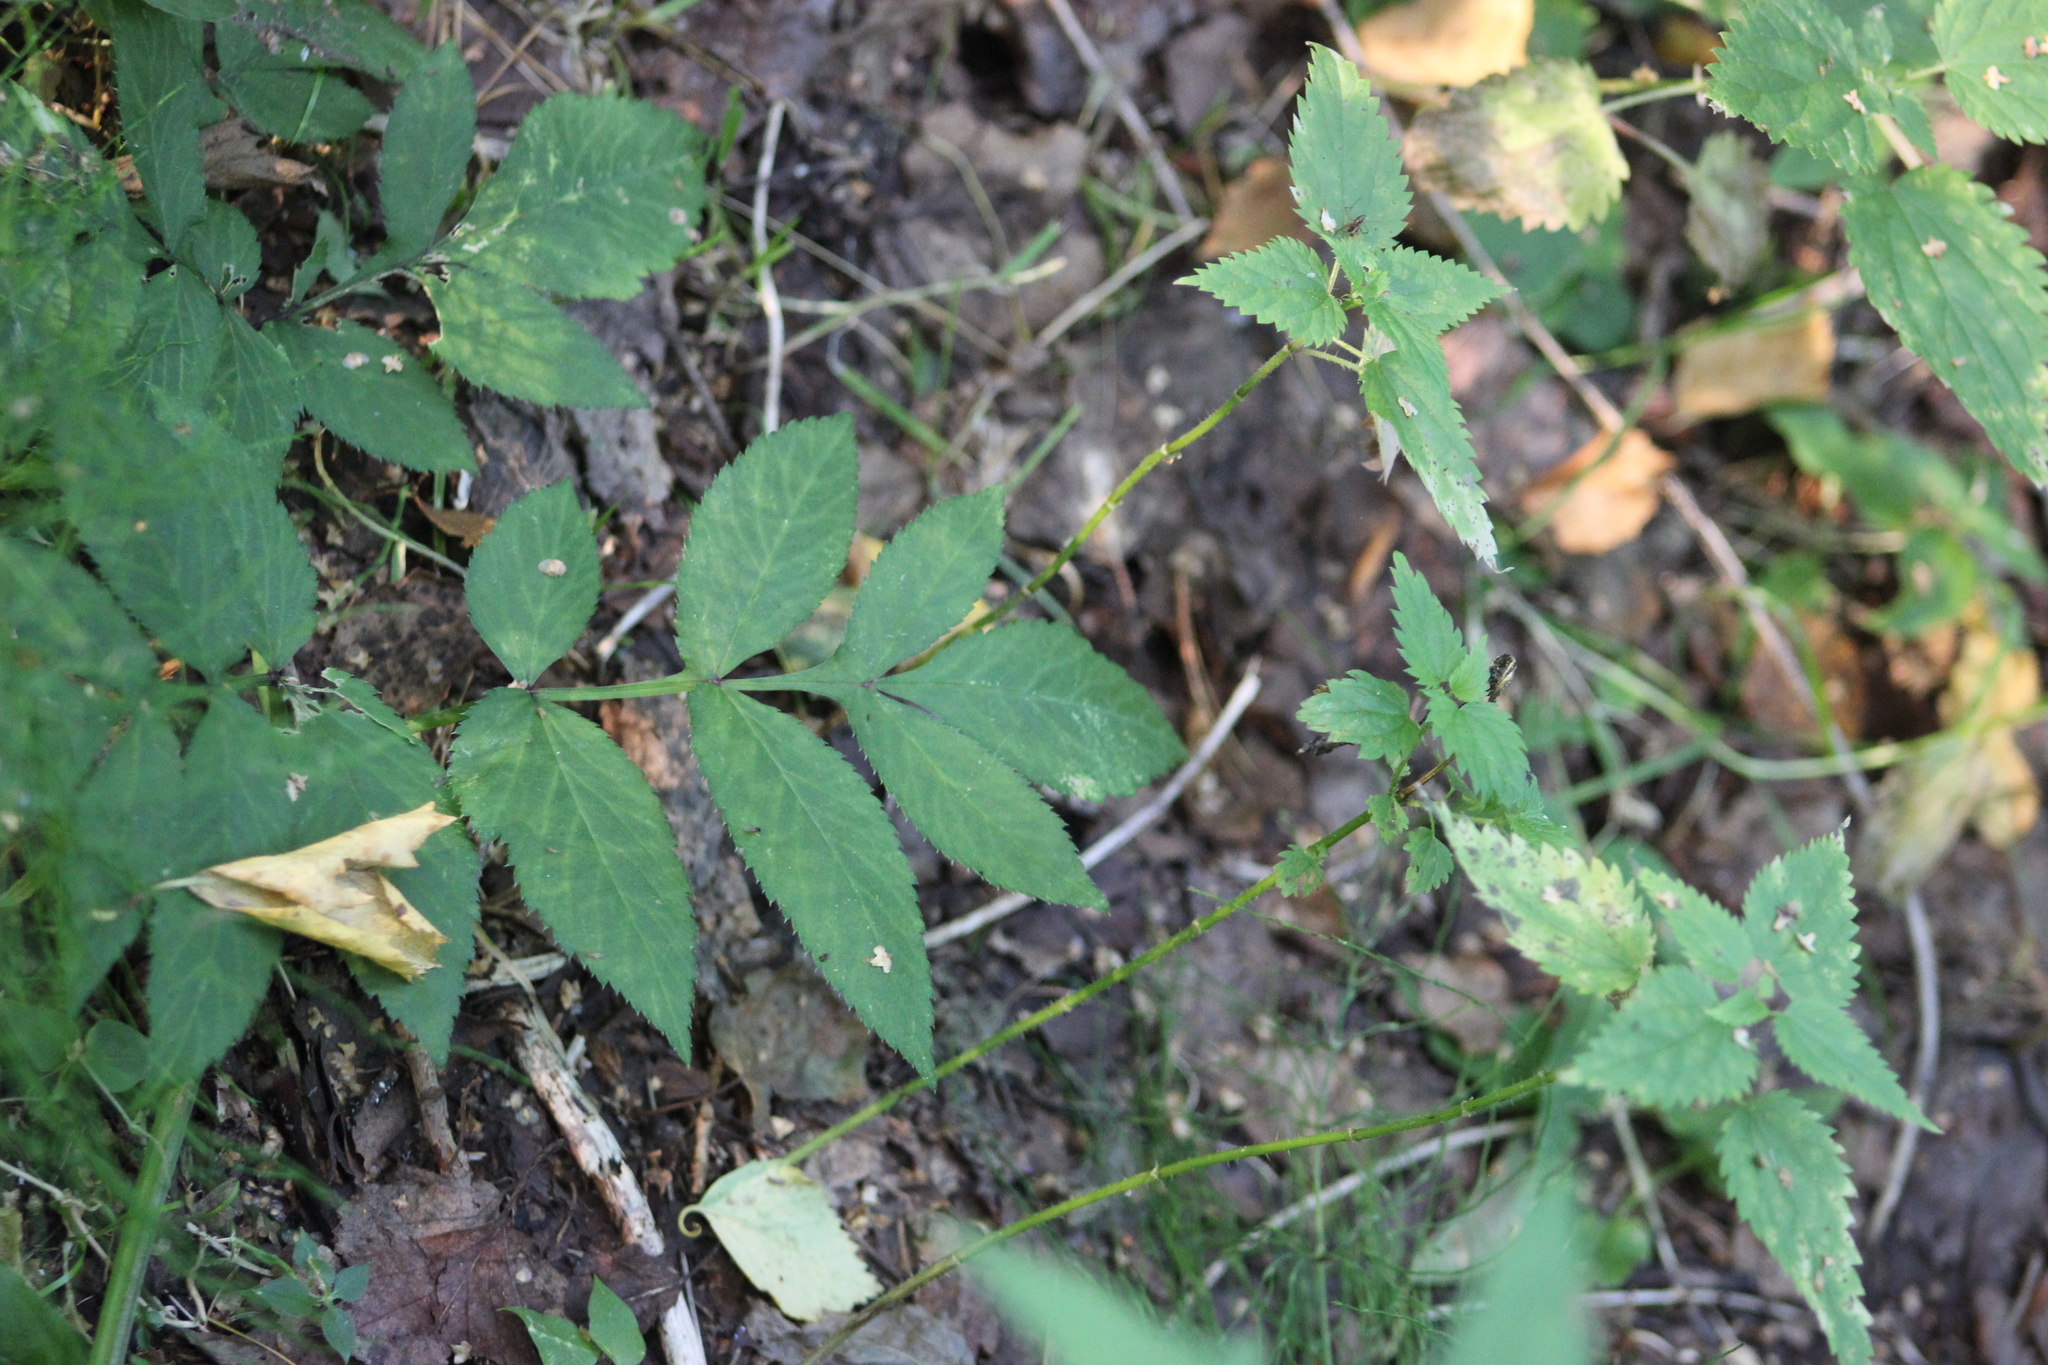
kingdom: Plantae
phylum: Tracheophyta
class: Magnoliopsida
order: Apiales
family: Apiaceae
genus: Angelica
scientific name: Angelica sylvestris
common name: Wild angelica
